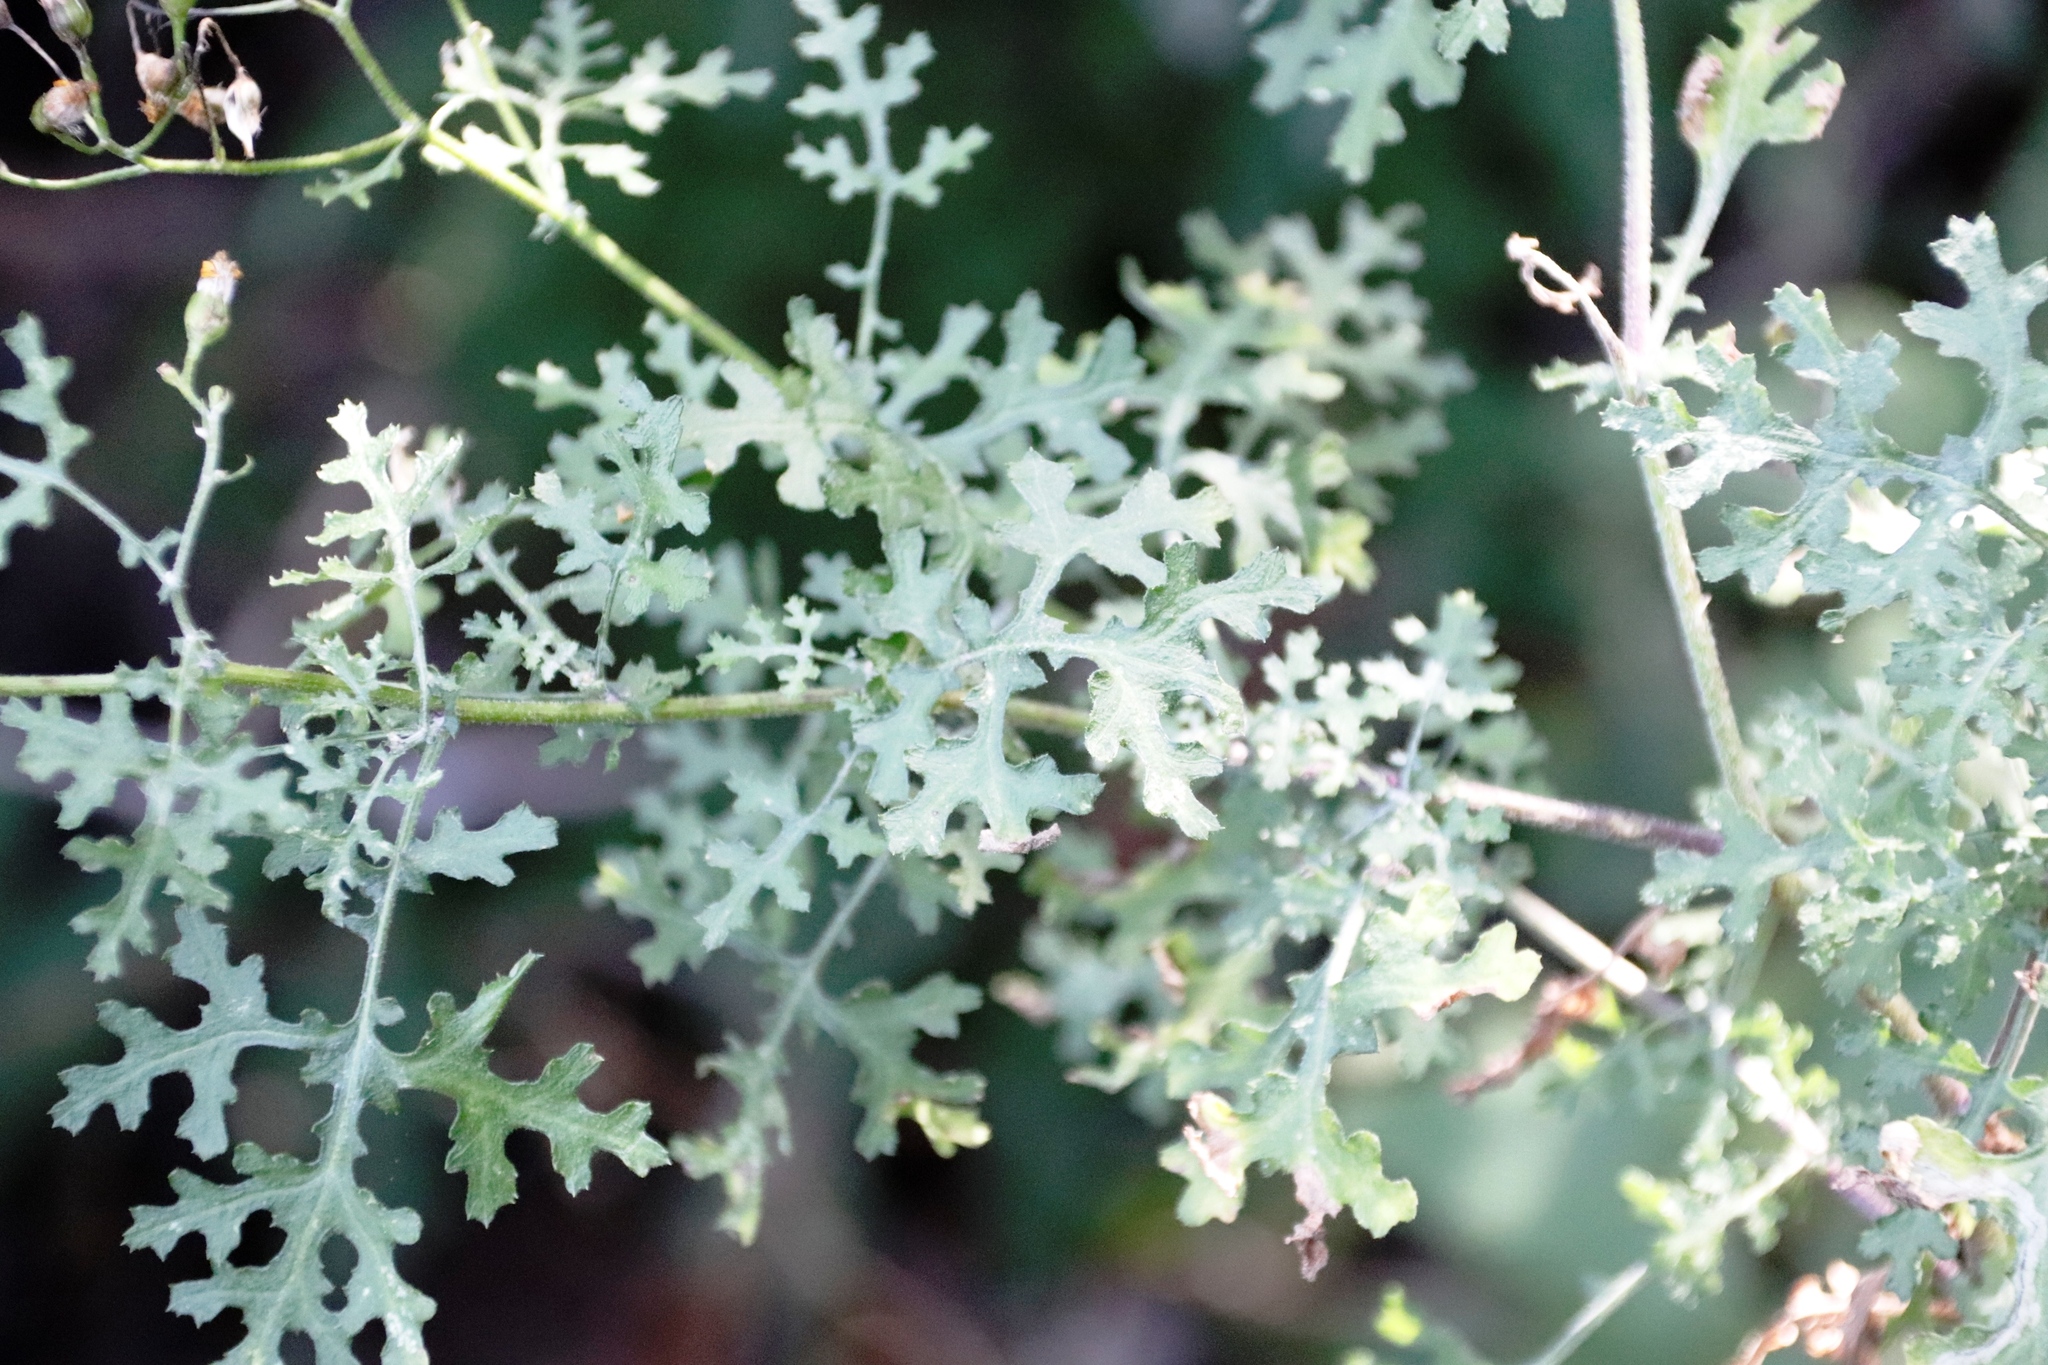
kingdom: Plantae
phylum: Tracheophyta
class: Magnoliopsida
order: Asterales
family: Asteraceae
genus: Cineraria
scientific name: Cineraria lyratiformis
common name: Cineraria
